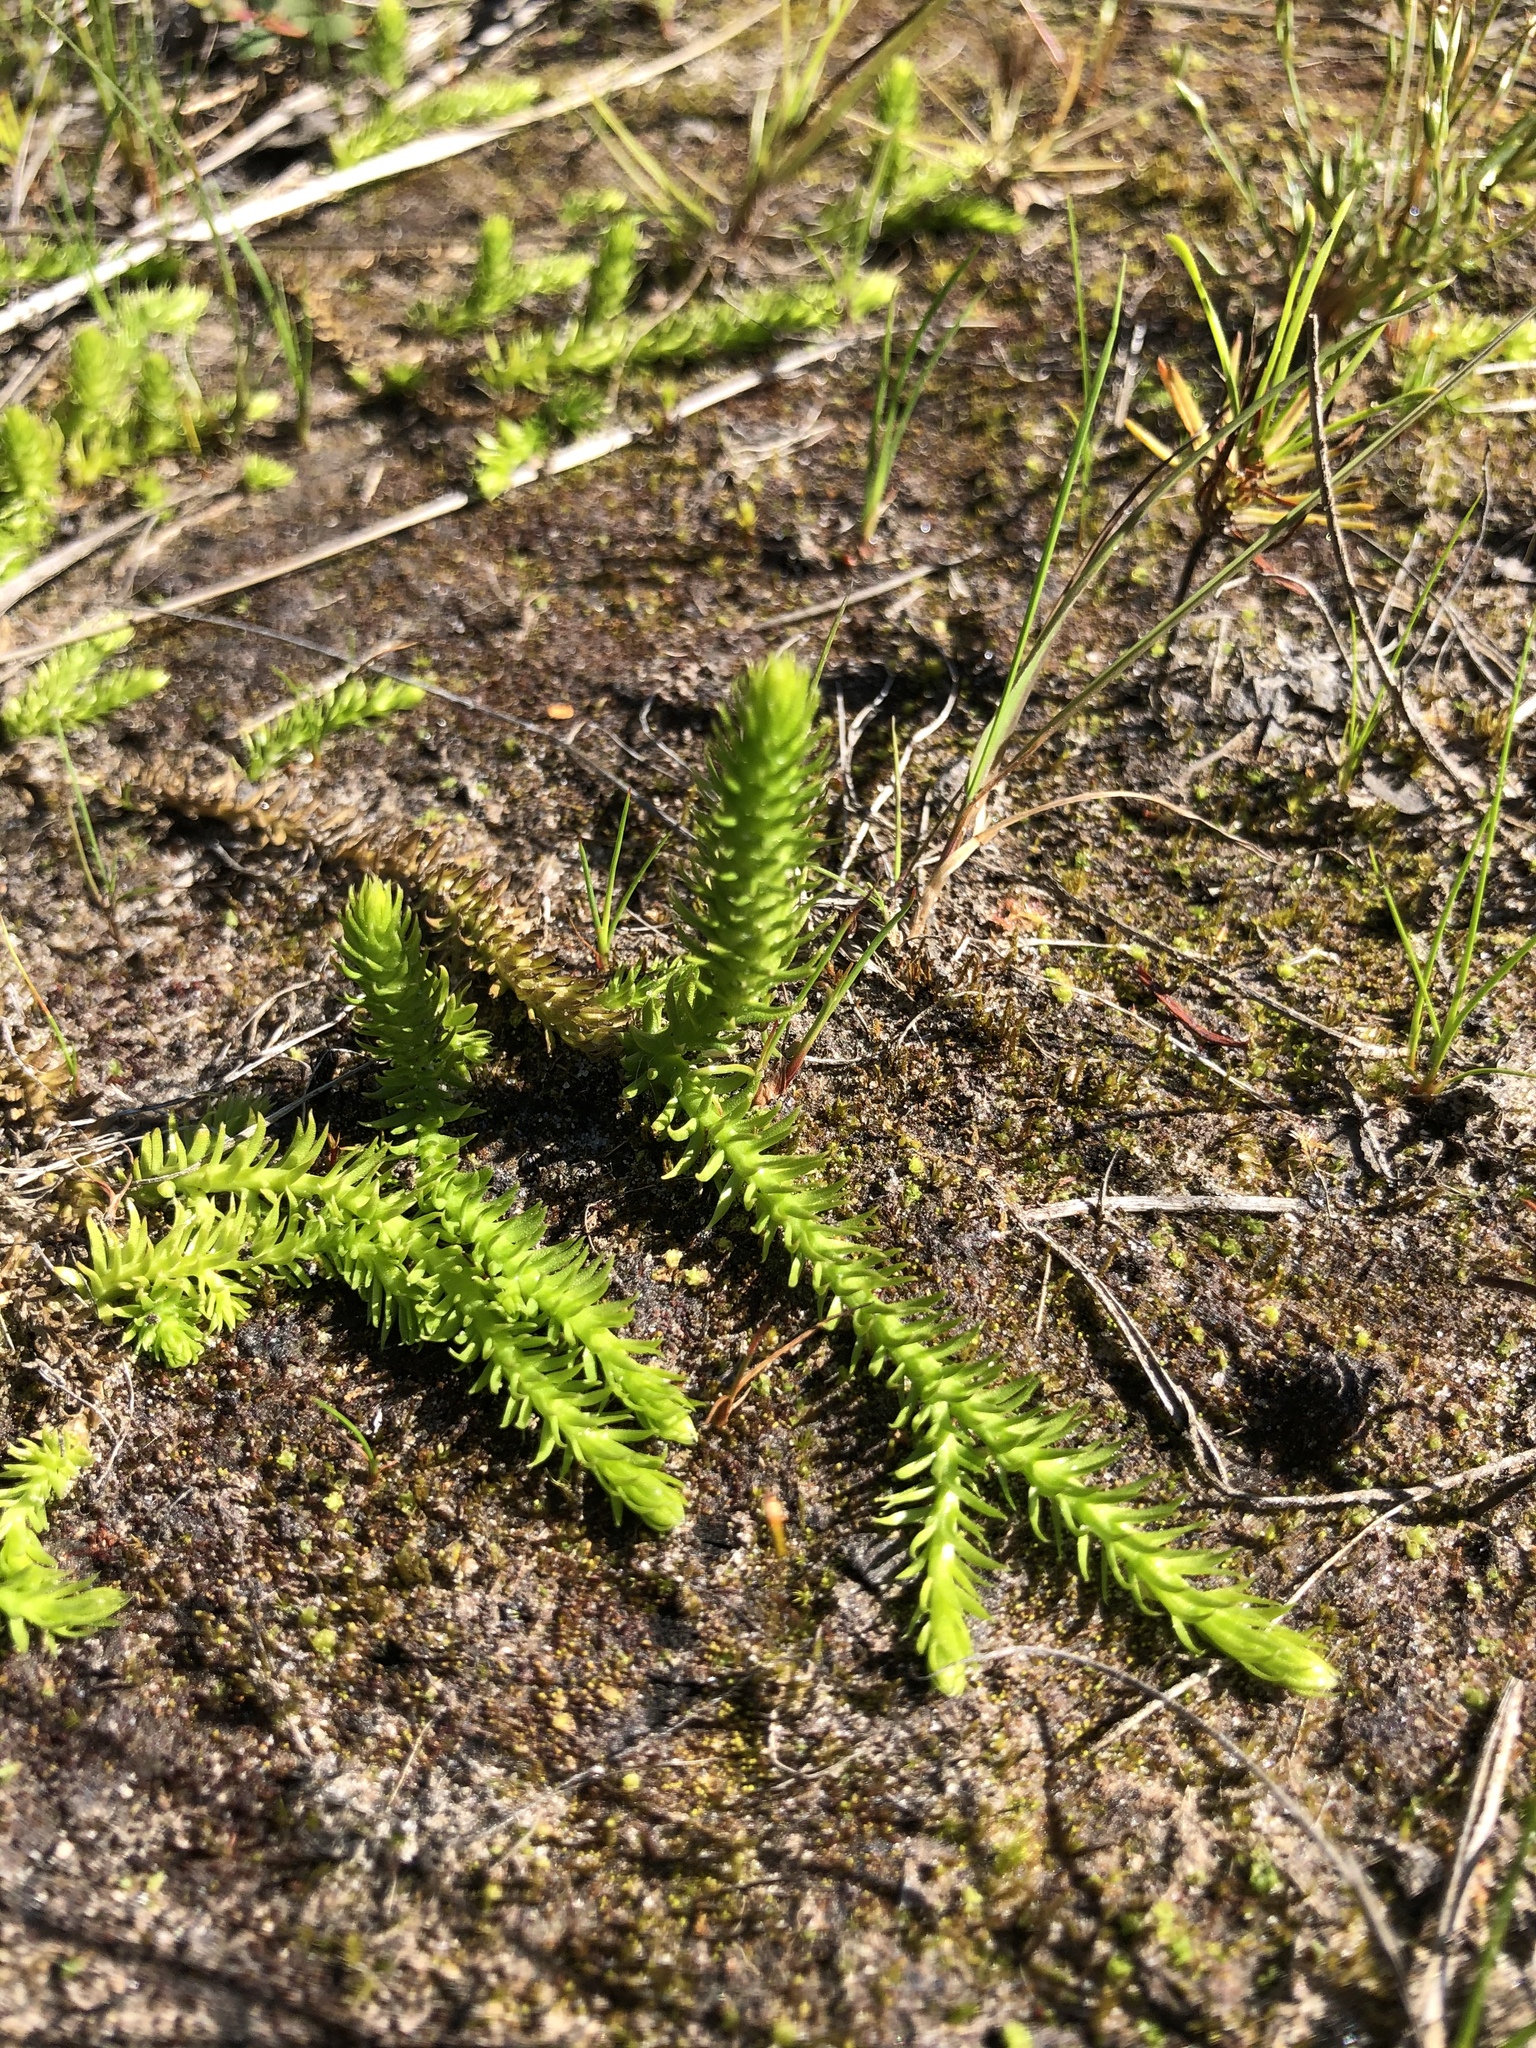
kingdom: Plantae
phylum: Tracheophyta
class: Lycopodiopsida
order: Lycopodiales
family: Lycopodiaceae
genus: Lycopodiella
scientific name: Lycopodiella inundata
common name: Marsh clubmoss
